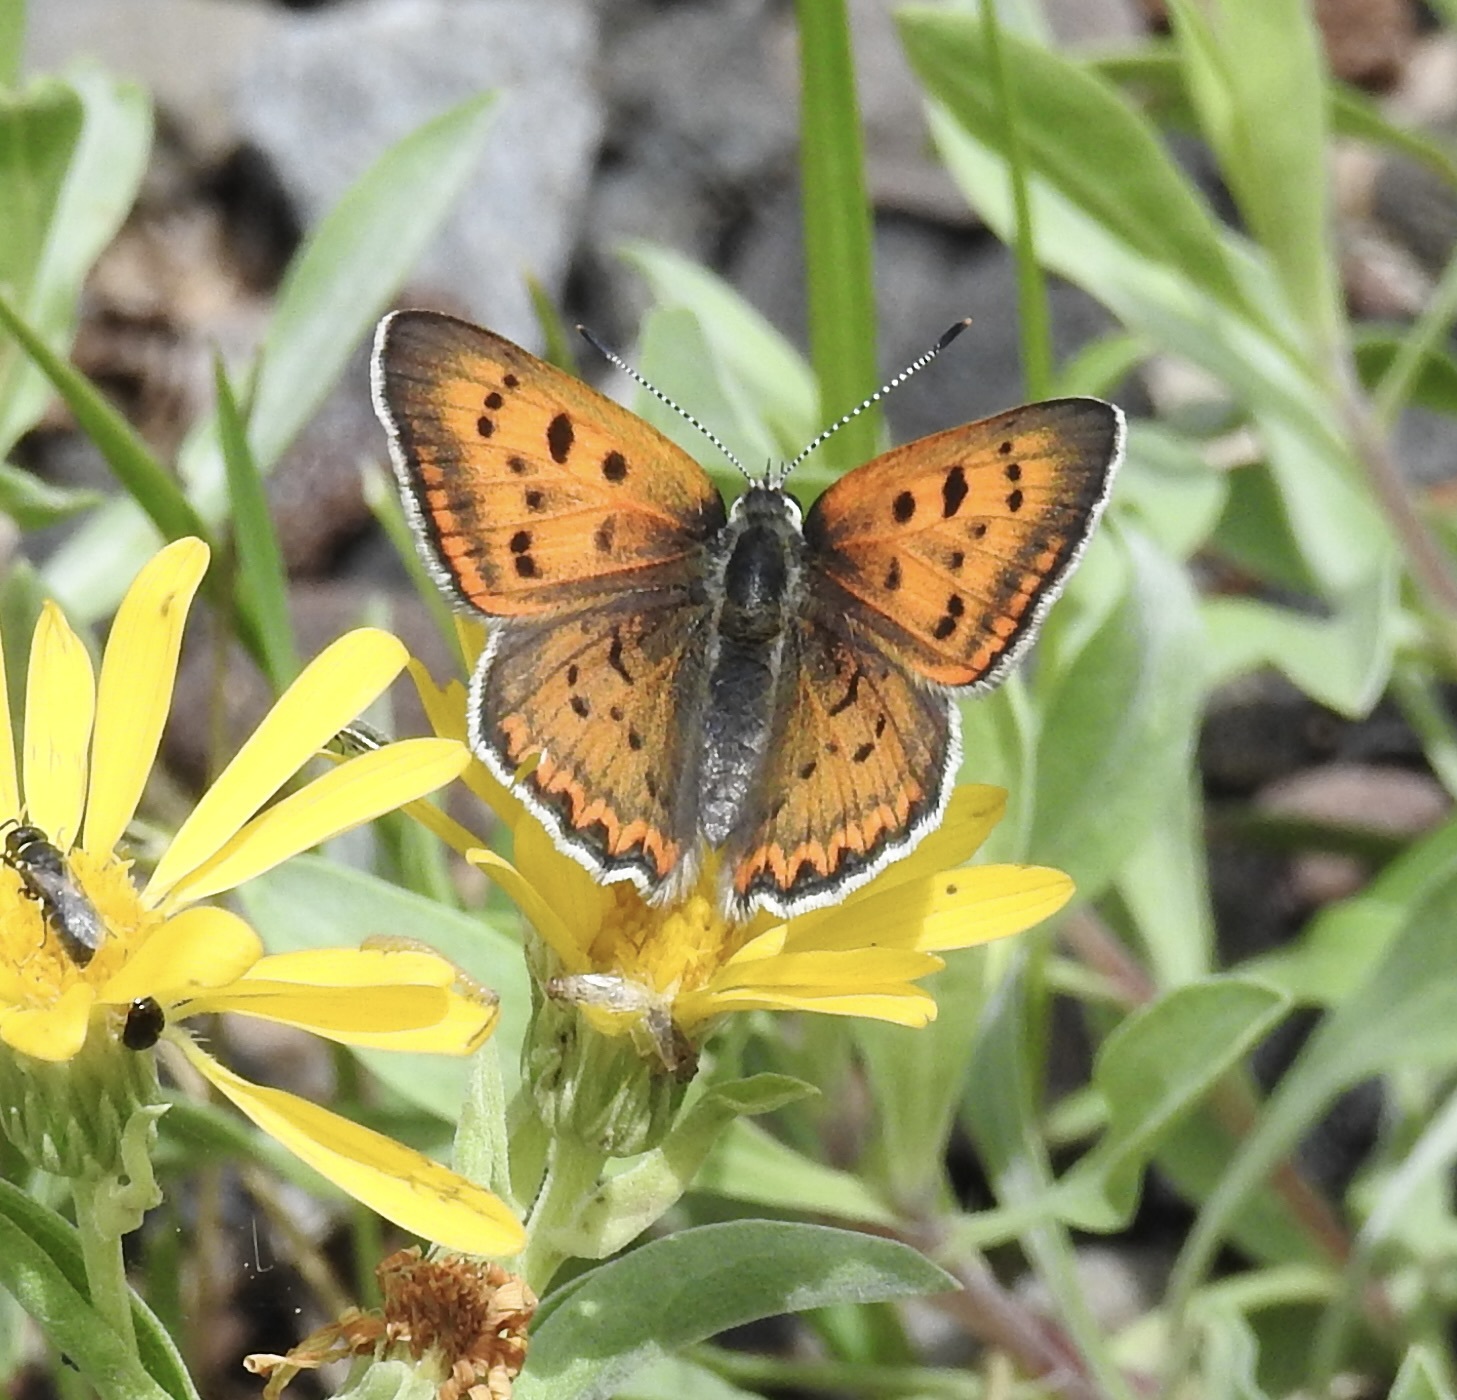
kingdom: Animalia
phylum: Arthropoda
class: Insecta
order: Lepidoptera
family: Lycaenidae
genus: Tharsalea
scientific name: Tharsalea rubidus
